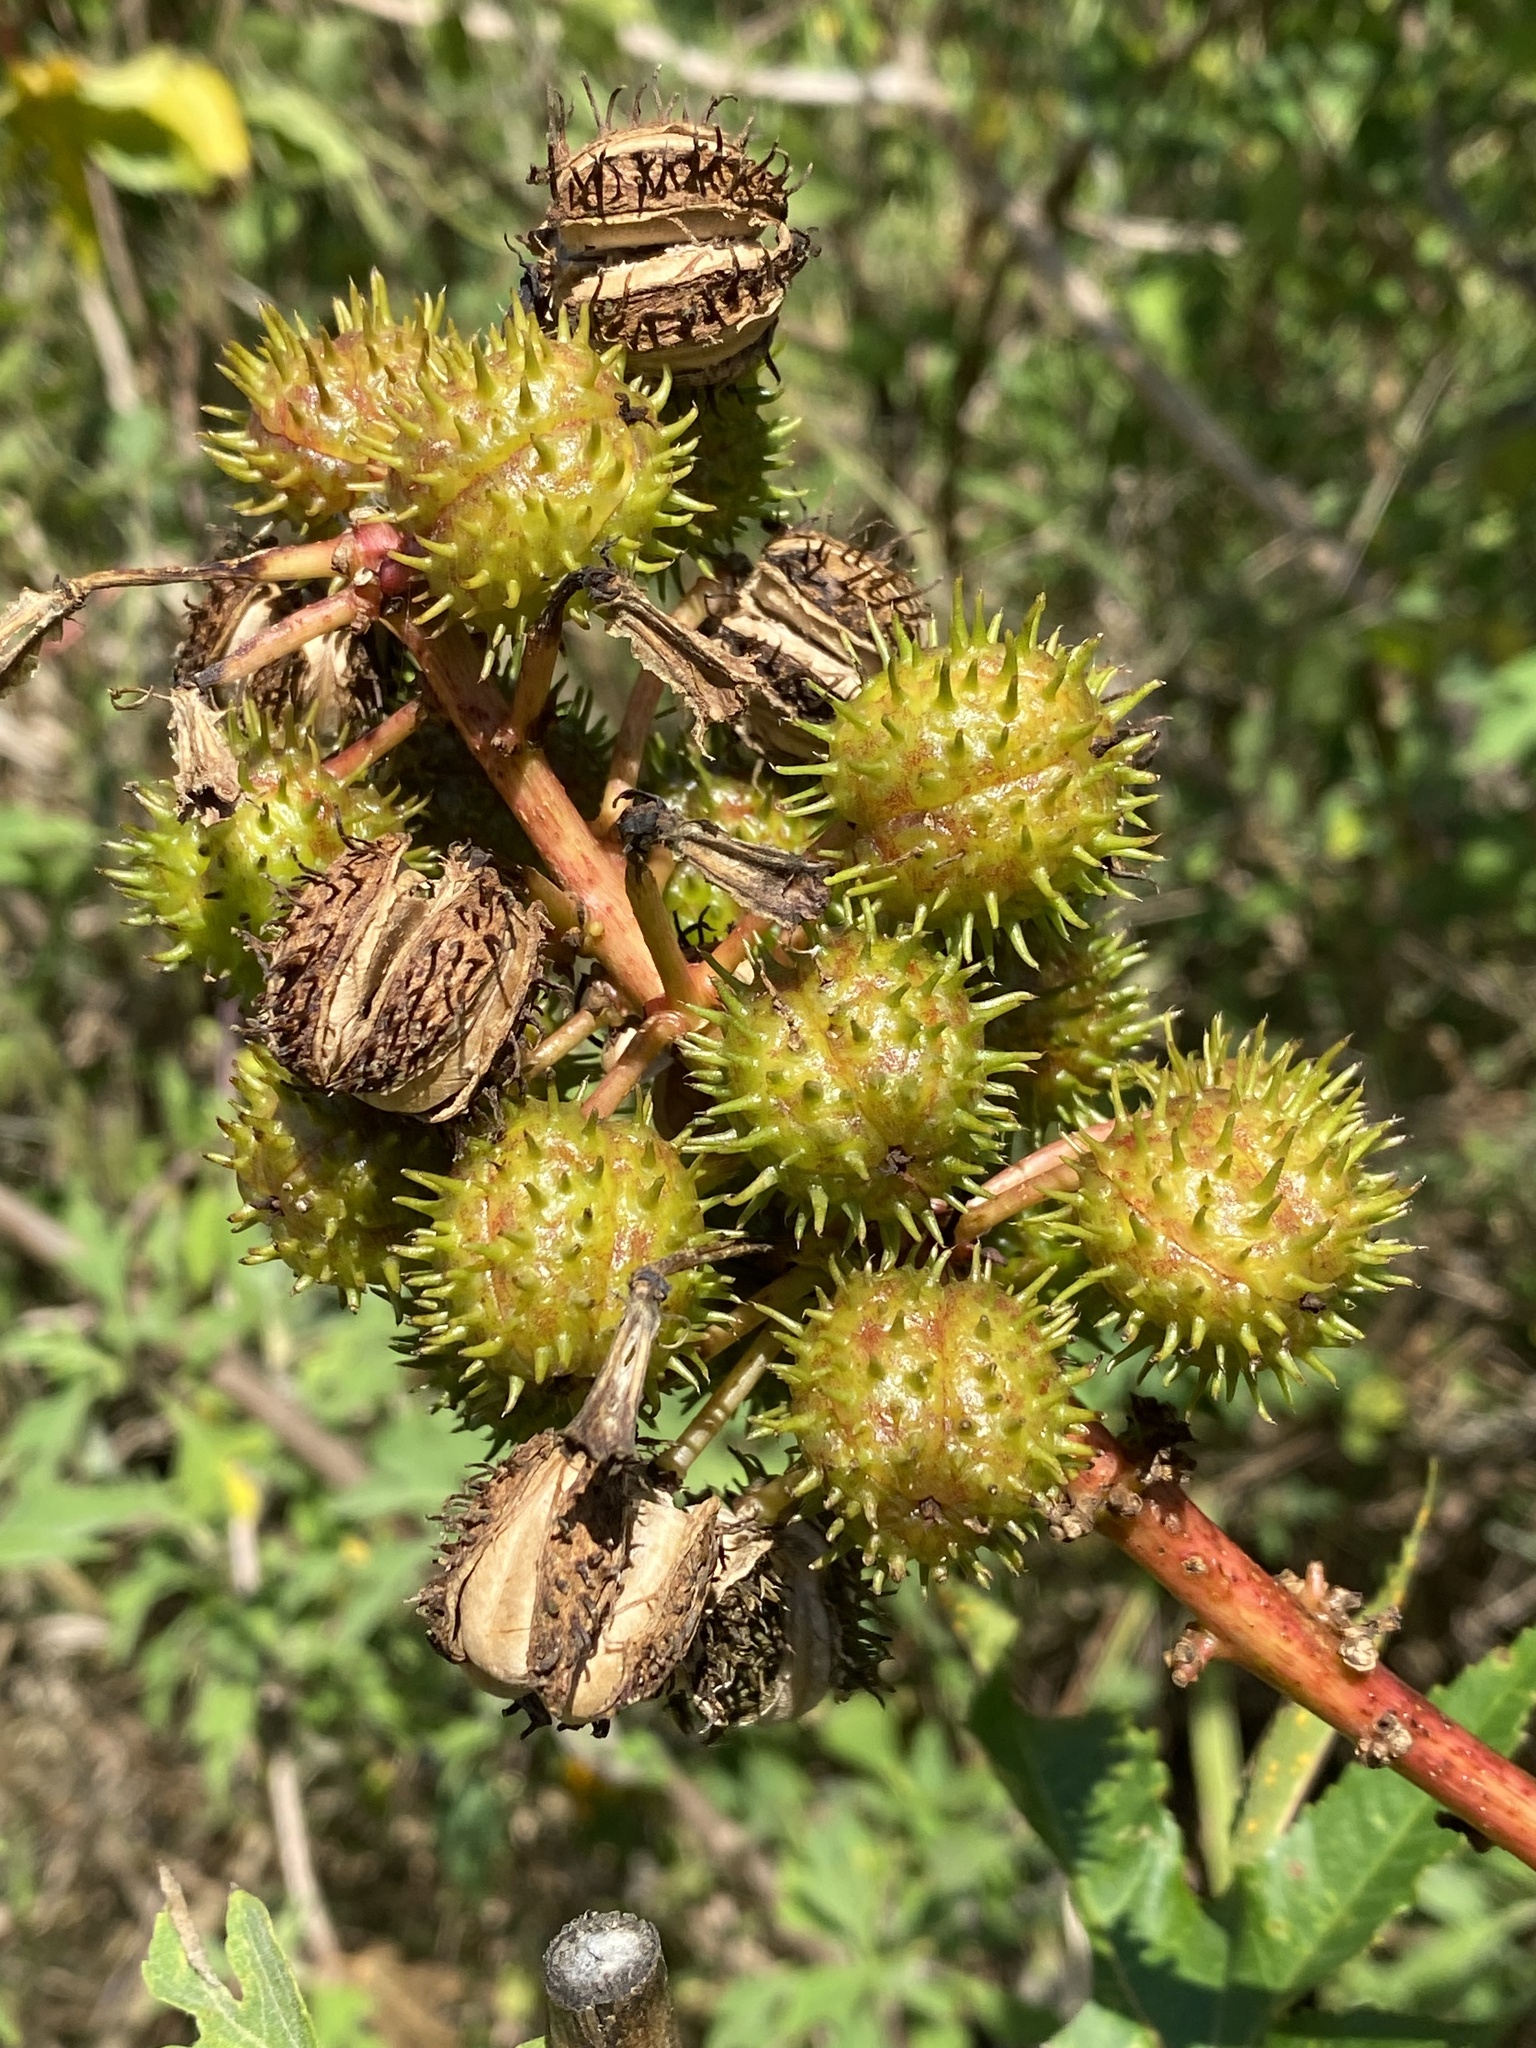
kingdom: Plantae
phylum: Tracheophyta
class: Magnoliopsida
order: Malpighiales
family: Euphorbiaceae
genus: Ricinus
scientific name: Ricinus communis
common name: Castor-oil-plant
